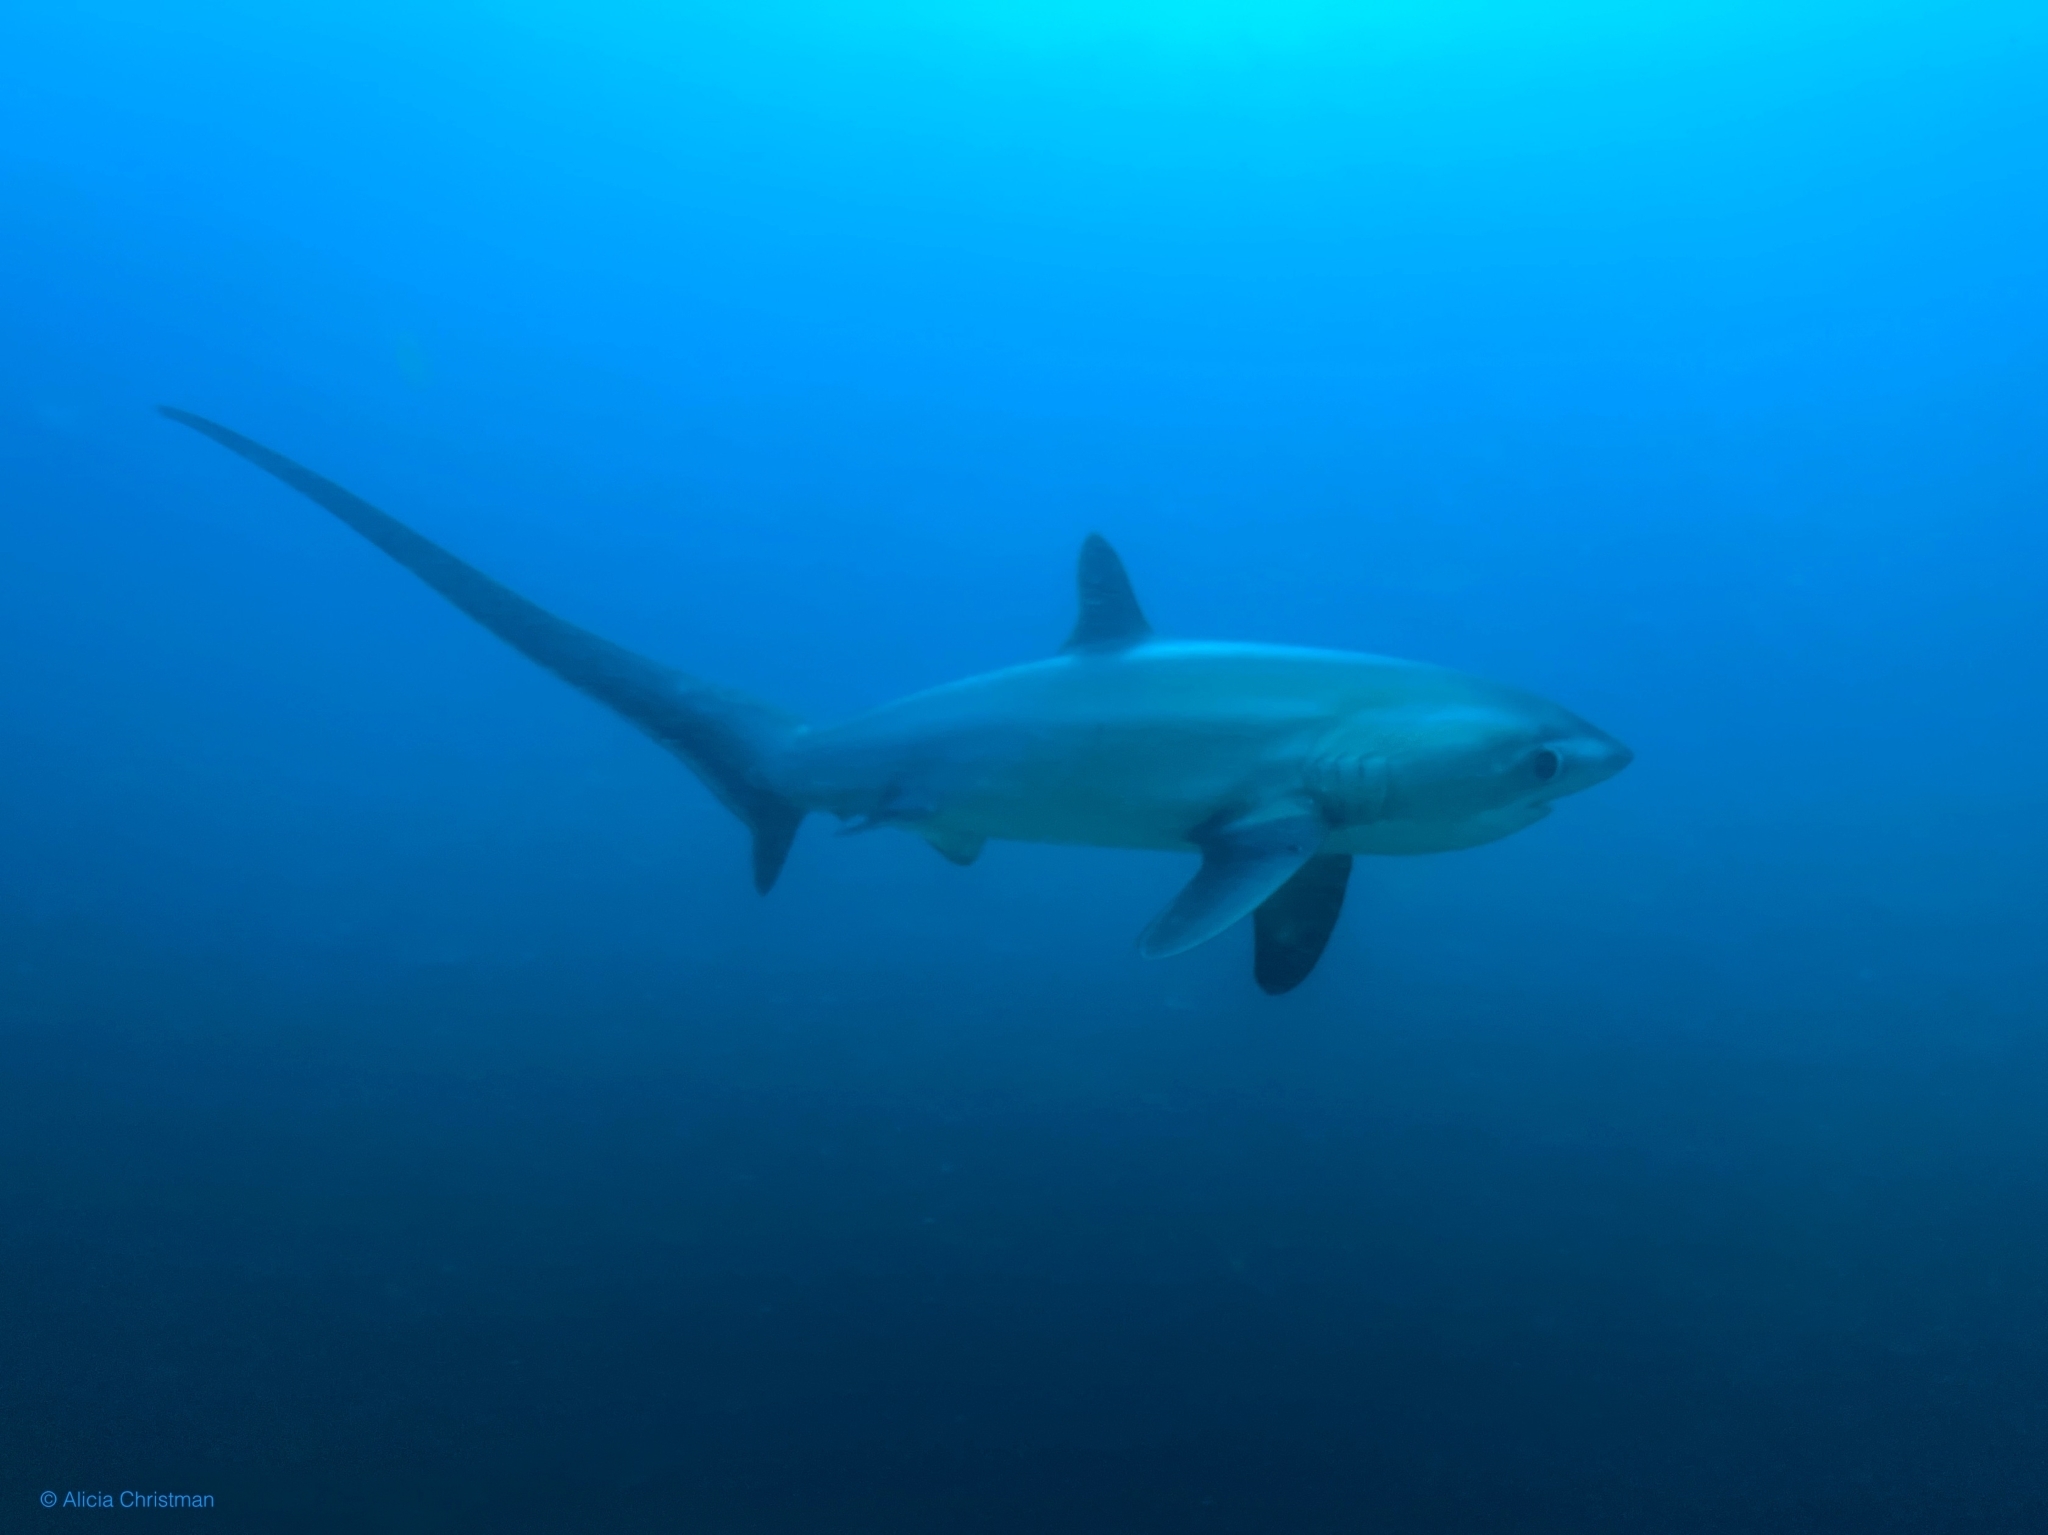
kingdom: Animalia
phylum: Chordata
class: Elasmobranchii
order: Lamniformes
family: Alopiidae
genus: Alopias
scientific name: Alopias pelagicus
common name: Pelagic thresher
